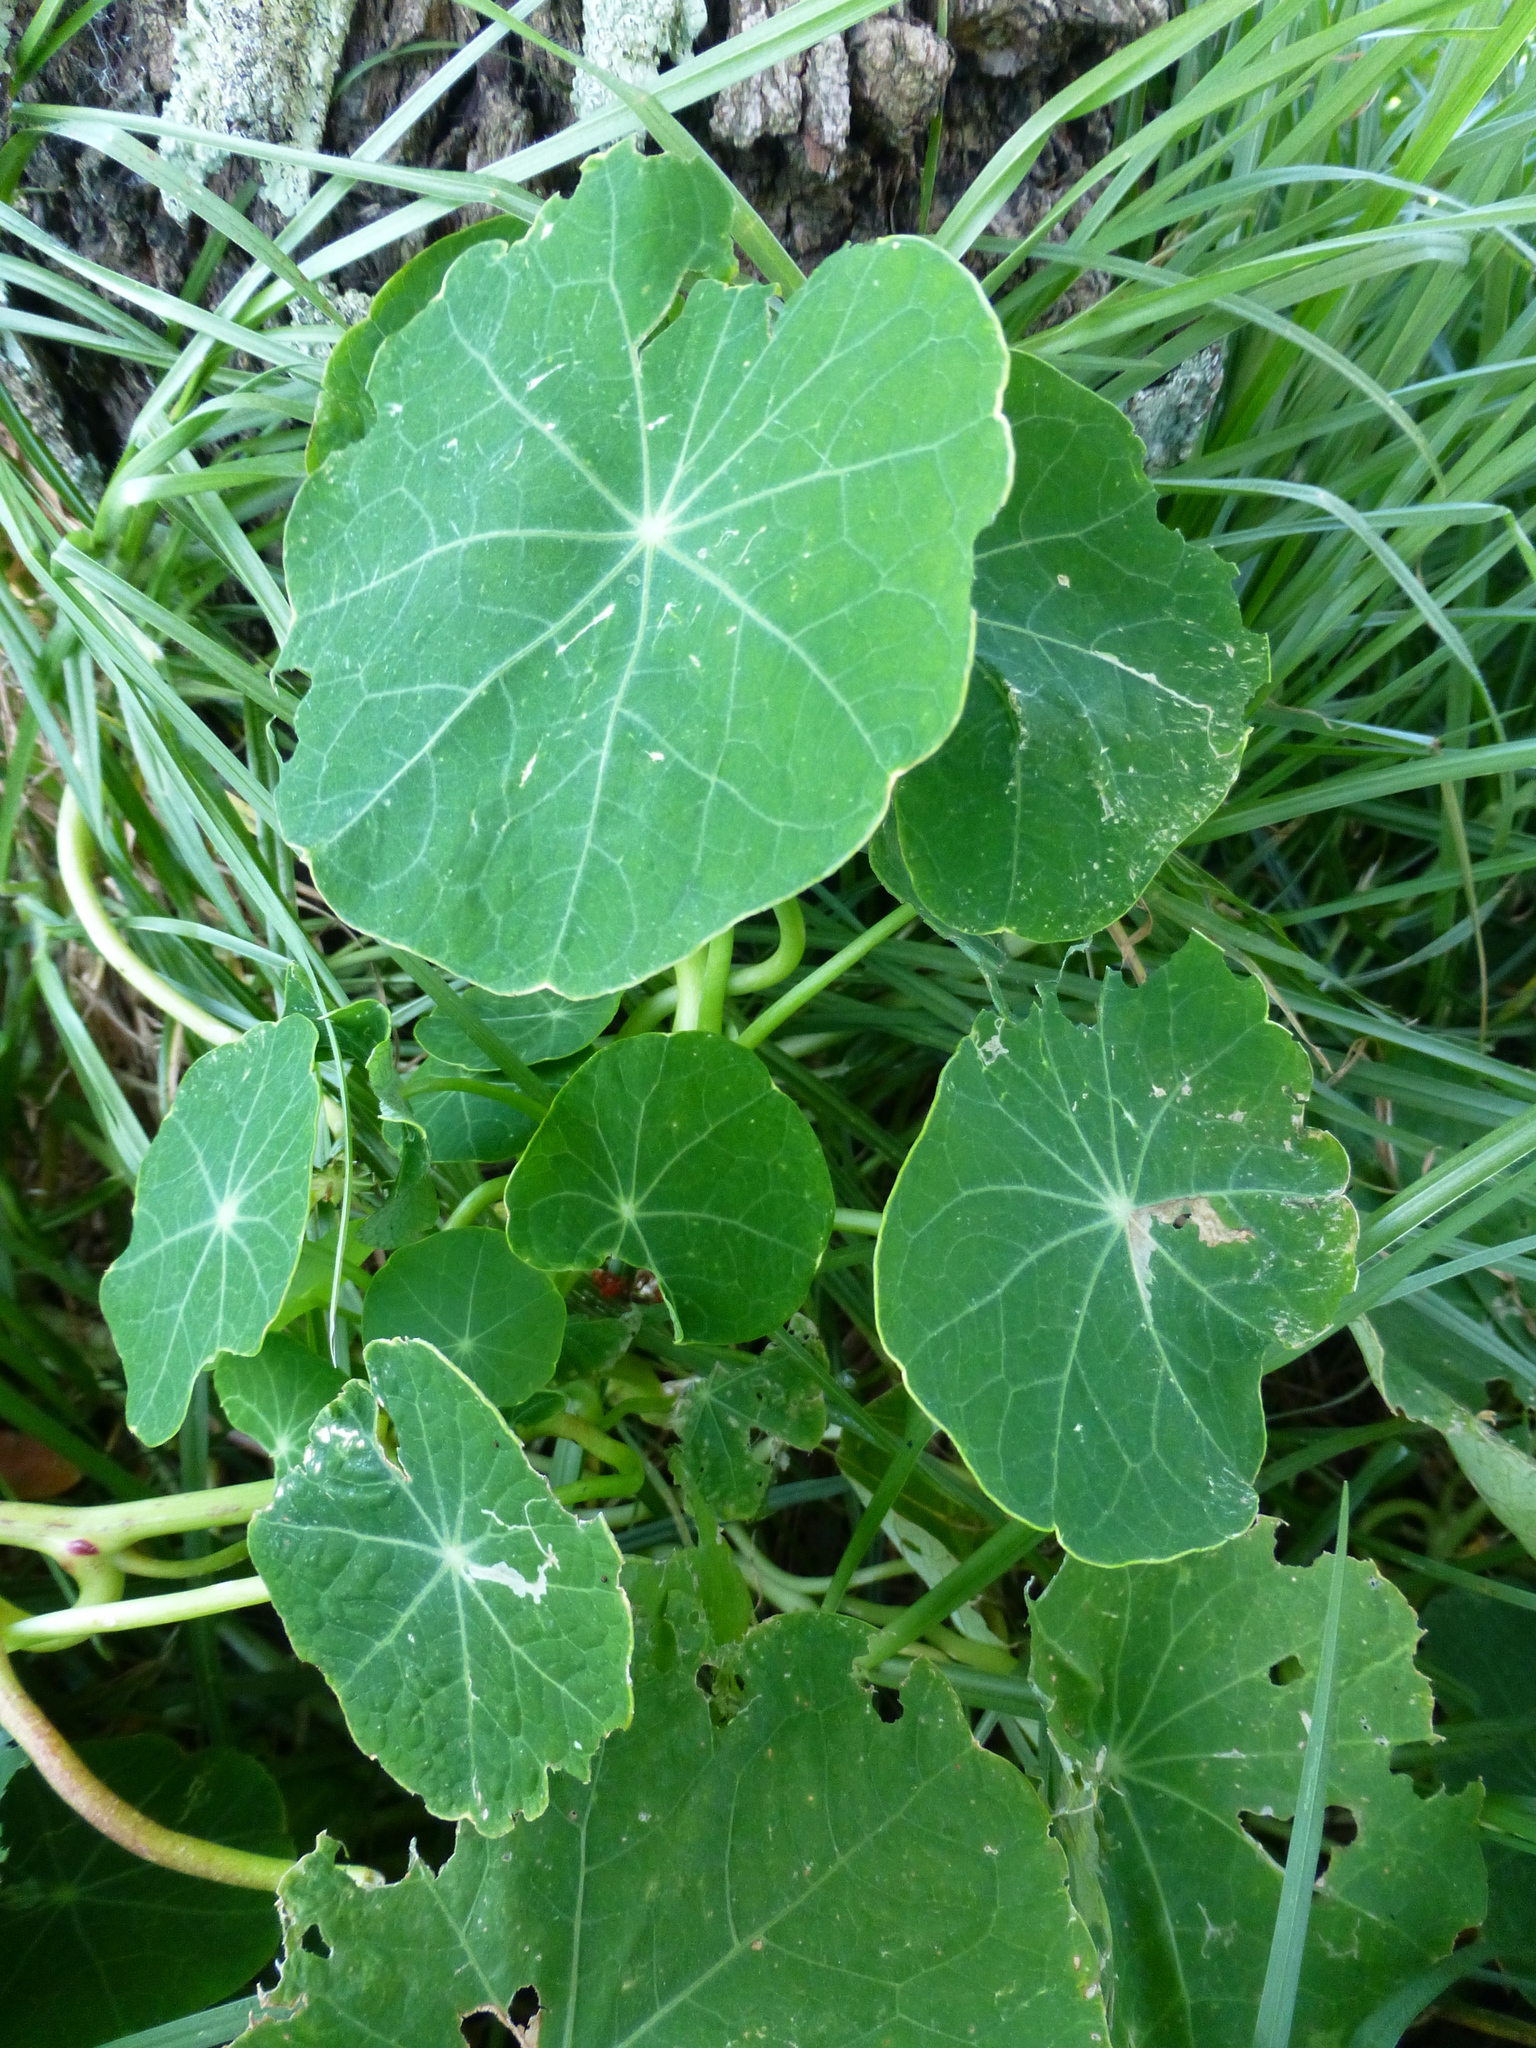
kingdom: Plantae
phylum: Tracheophyta
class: Magnoliopsida
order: Brassicales
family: Tropaeolaceae
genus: Tropaeolum
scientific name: Tropaeolum majus
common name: Nasturtium
